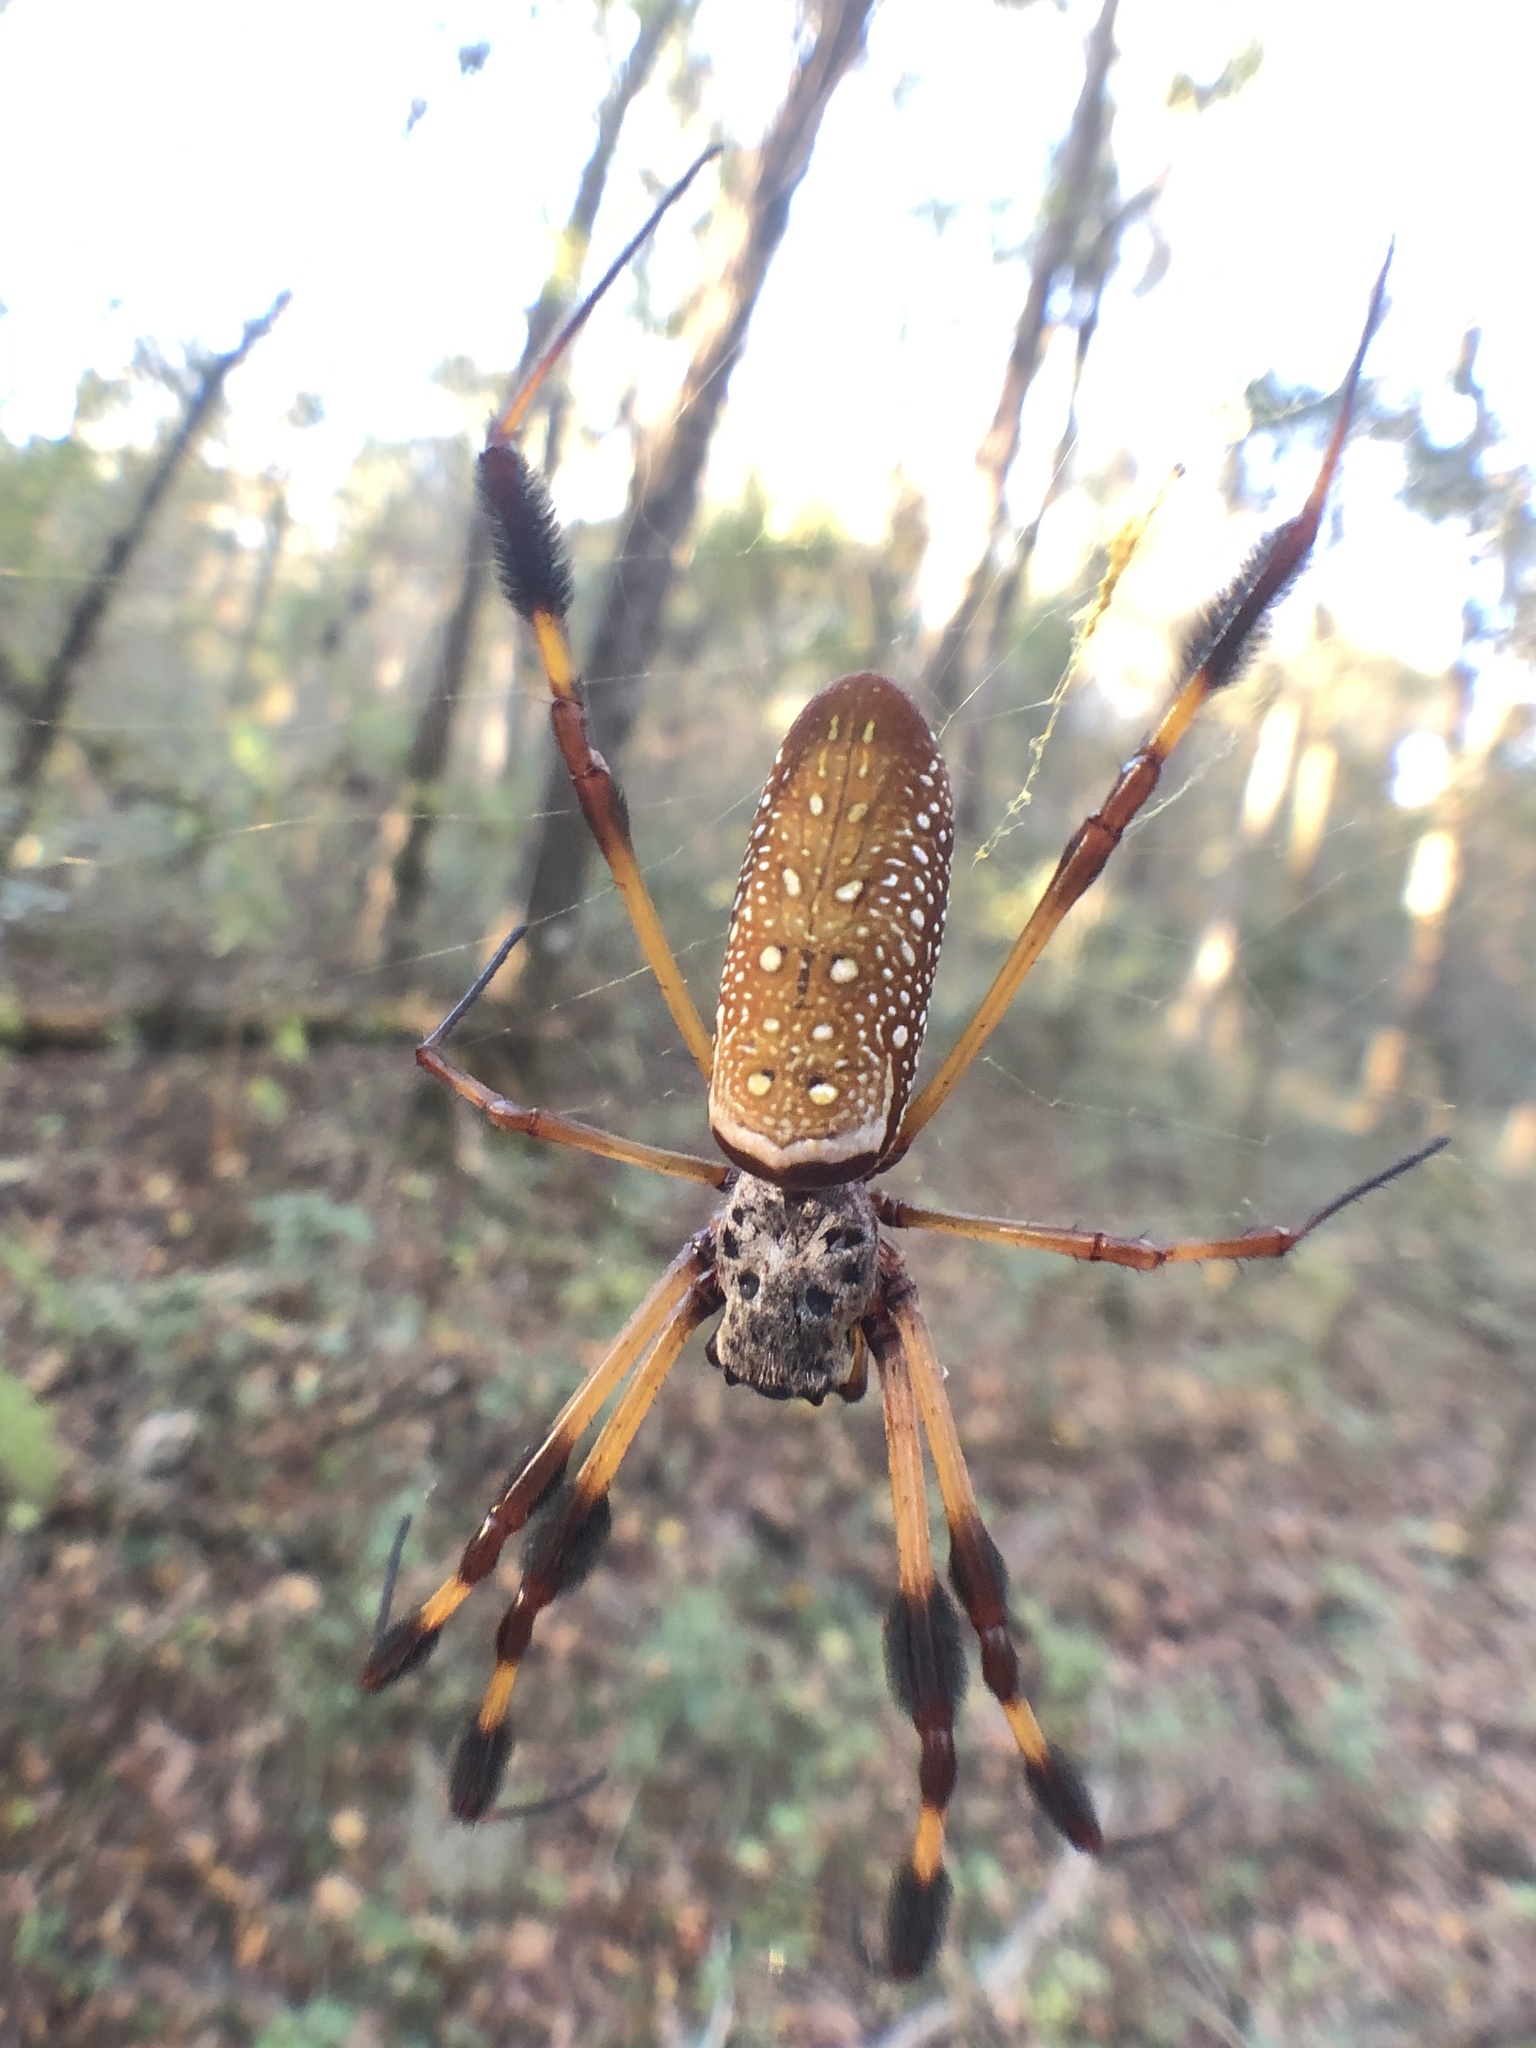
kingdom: Animalia
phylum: Arthropoda
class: Arachnida
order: Araneae
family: Araneidae
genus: Trichonephila
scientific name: Trichonephila clavipes
